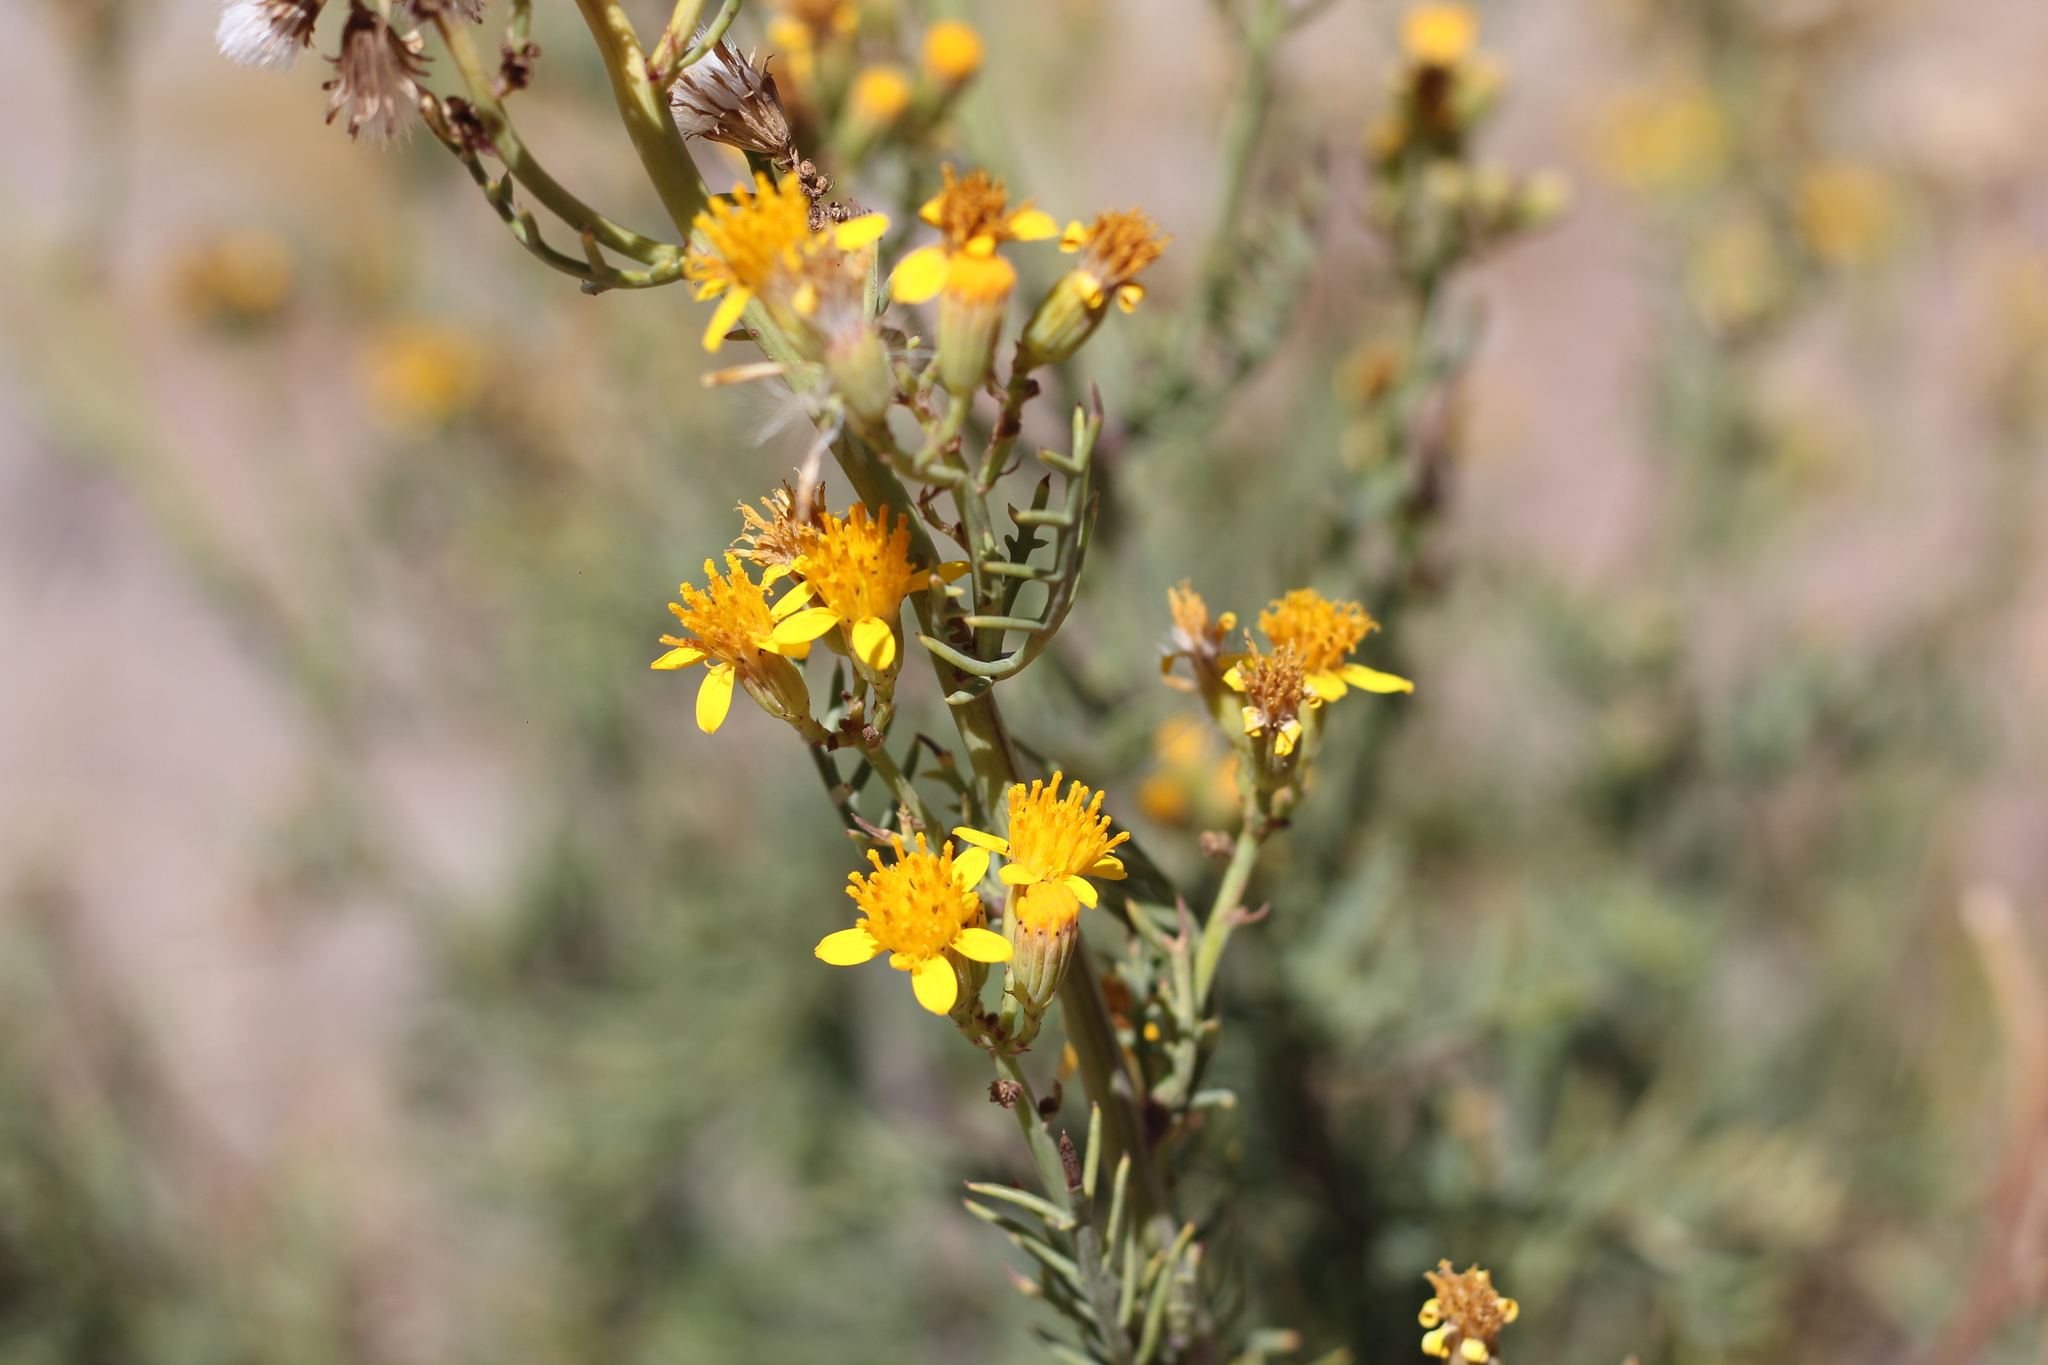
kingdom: Plantae
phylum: Tracheophyta
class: Magnoliopsida
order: Asterales
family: Asteraceae
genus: Senecio
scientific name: Senecio ragonesei
